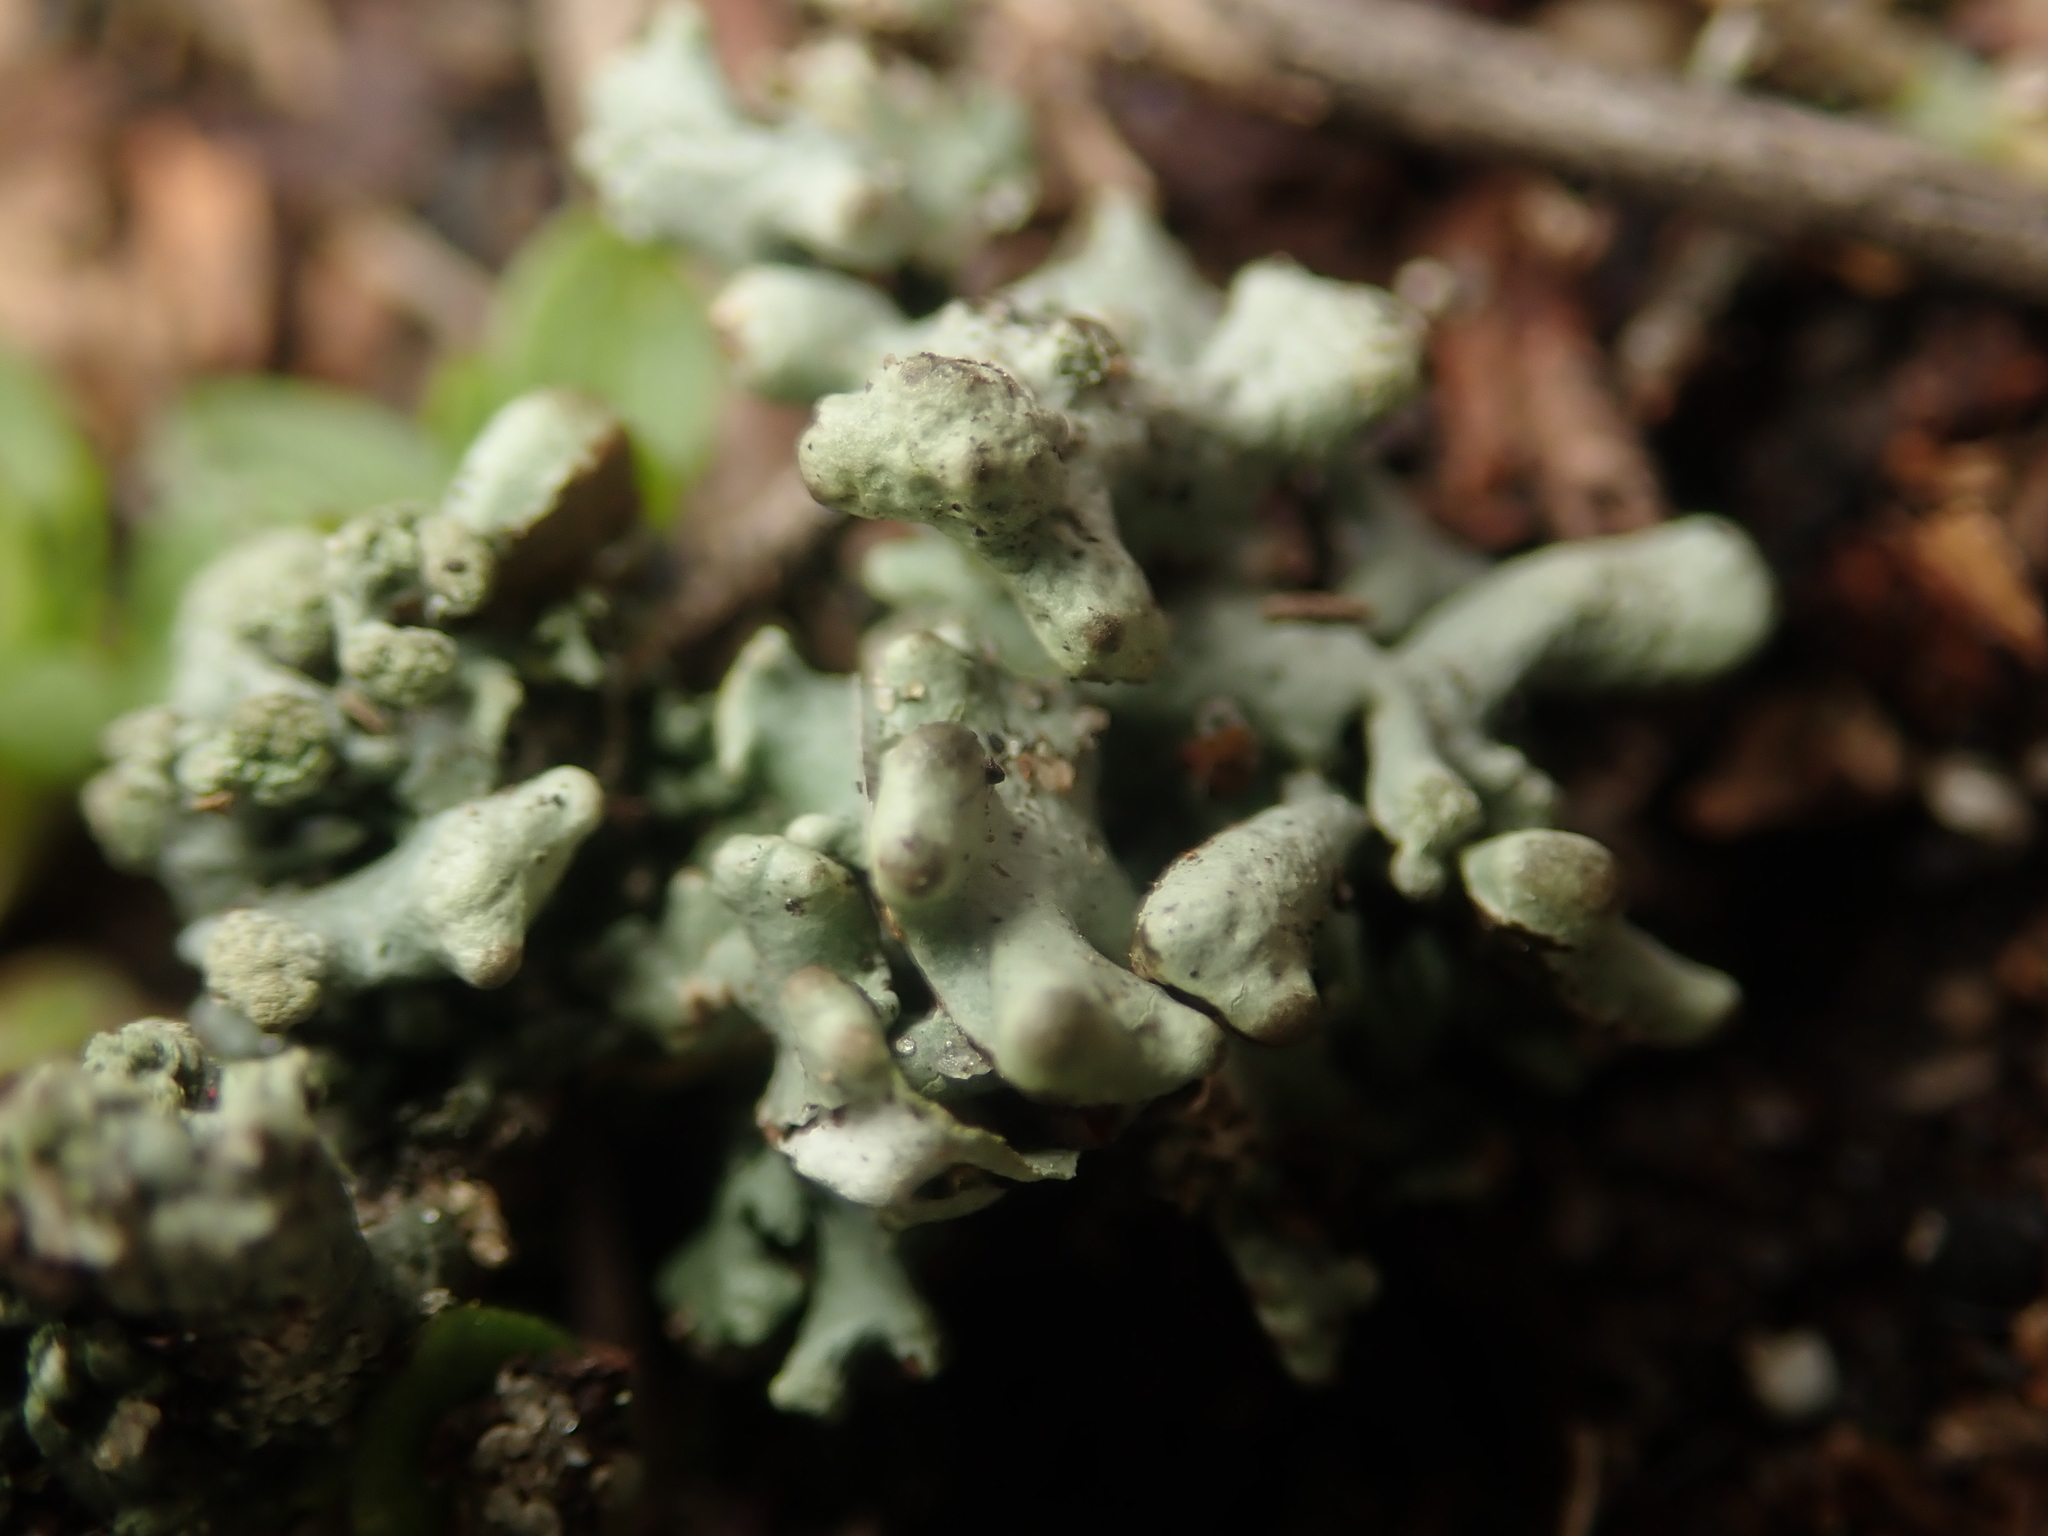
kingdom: Fungi
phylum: Ascomycota
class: Lecanoromycetes
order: Lecanorales
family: Parmeliaceae
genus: Hypogymnia
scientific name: Hypogymnia tubulosa
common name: Powder-headed tube lichen
